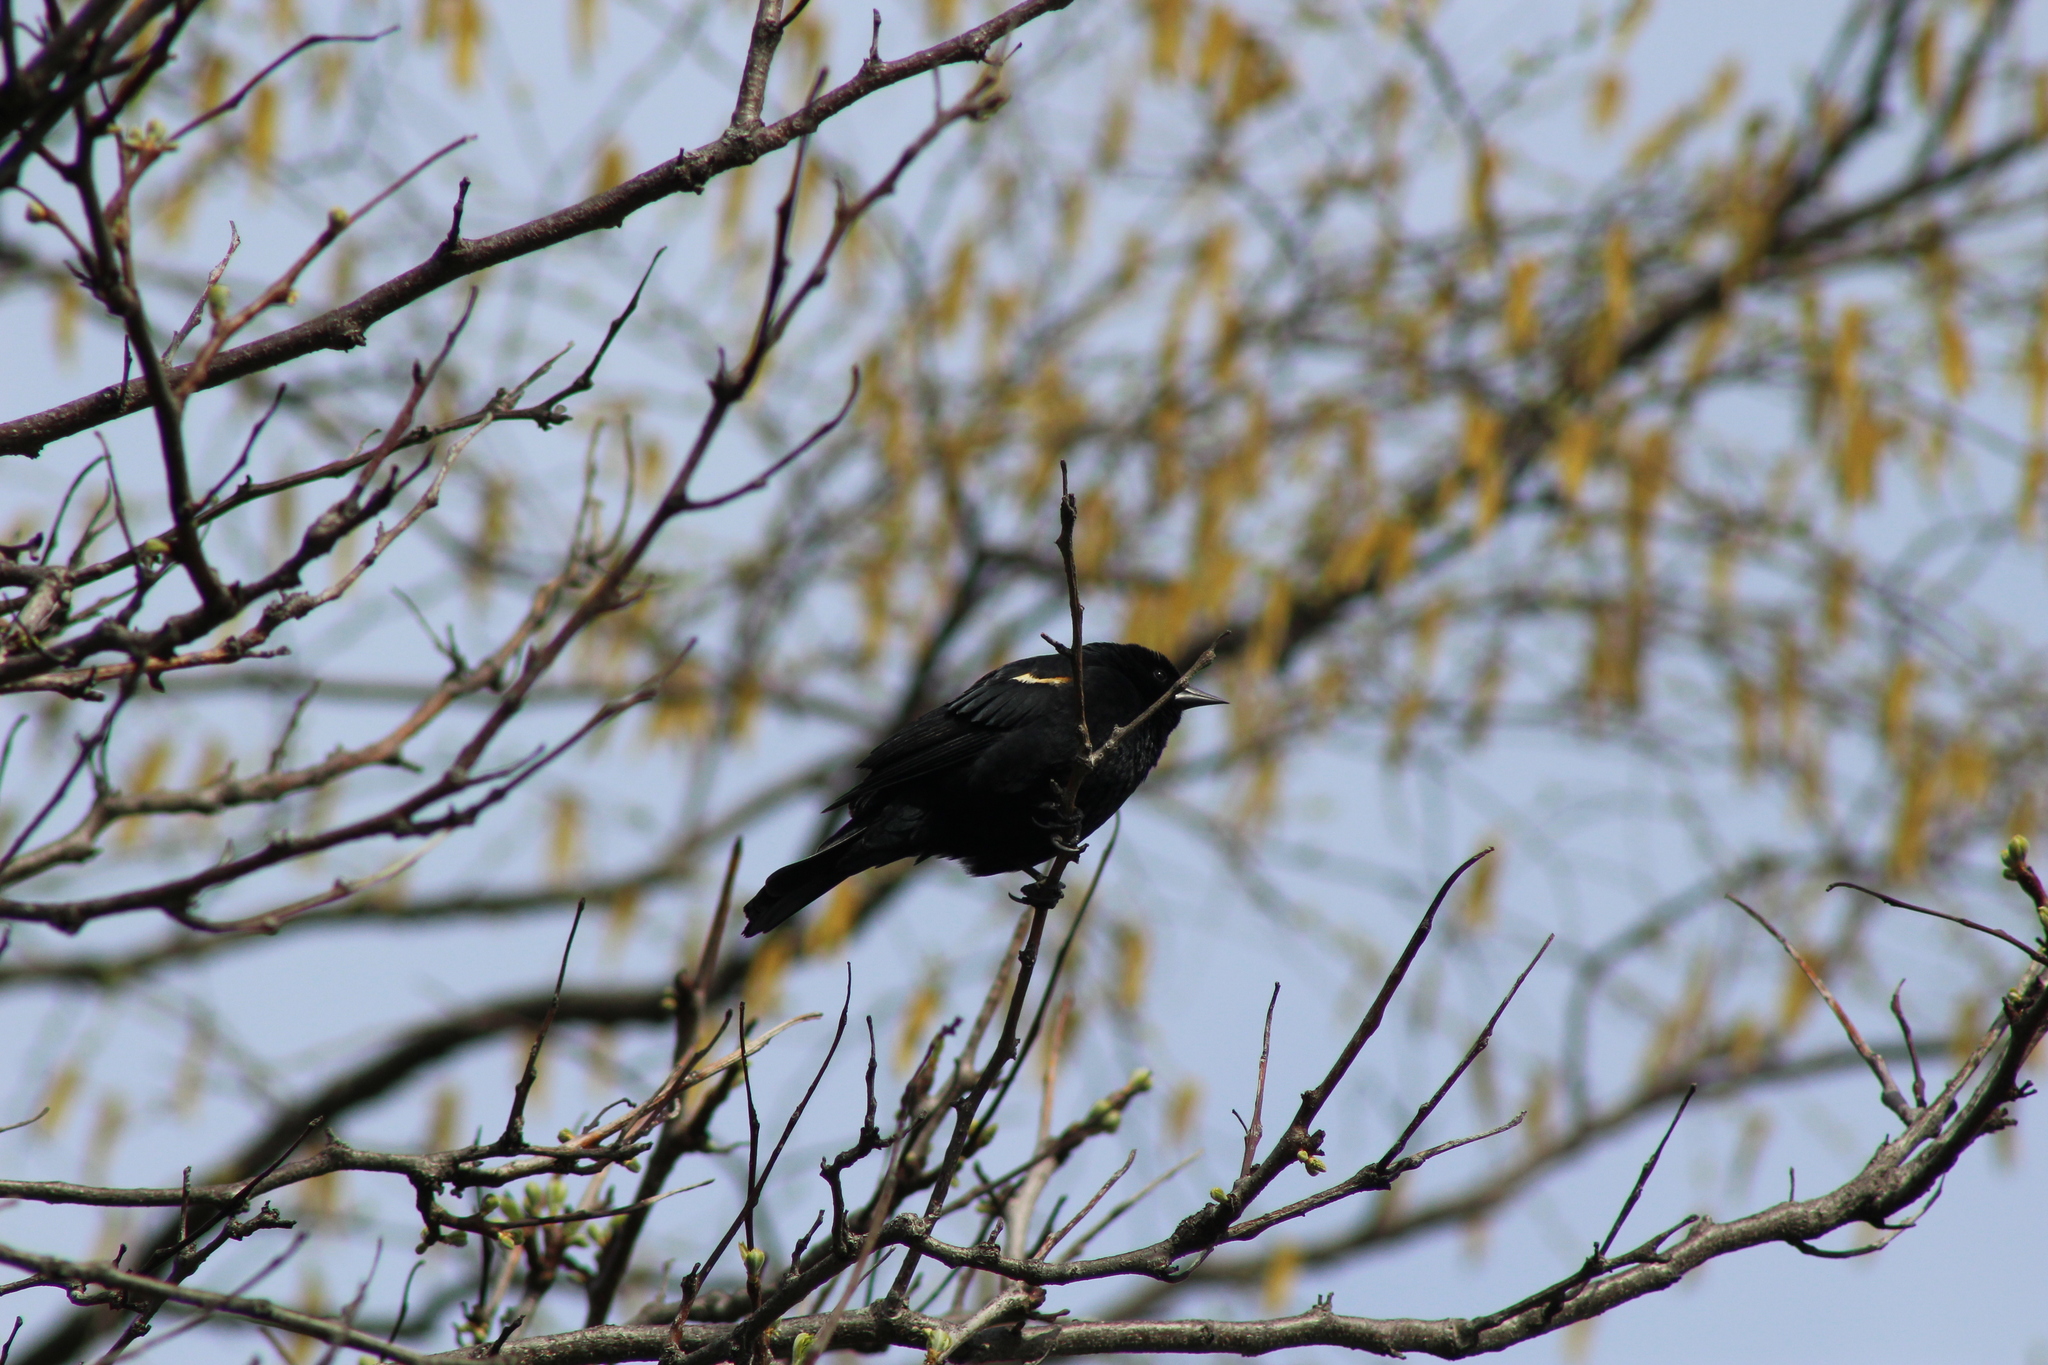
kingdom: Animalia
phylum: Chordata
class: Aves
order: Passeriformes
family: Icteridae
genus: Agelaius
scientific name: Agelaius phoeniceus
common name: Red-winged blackbird
